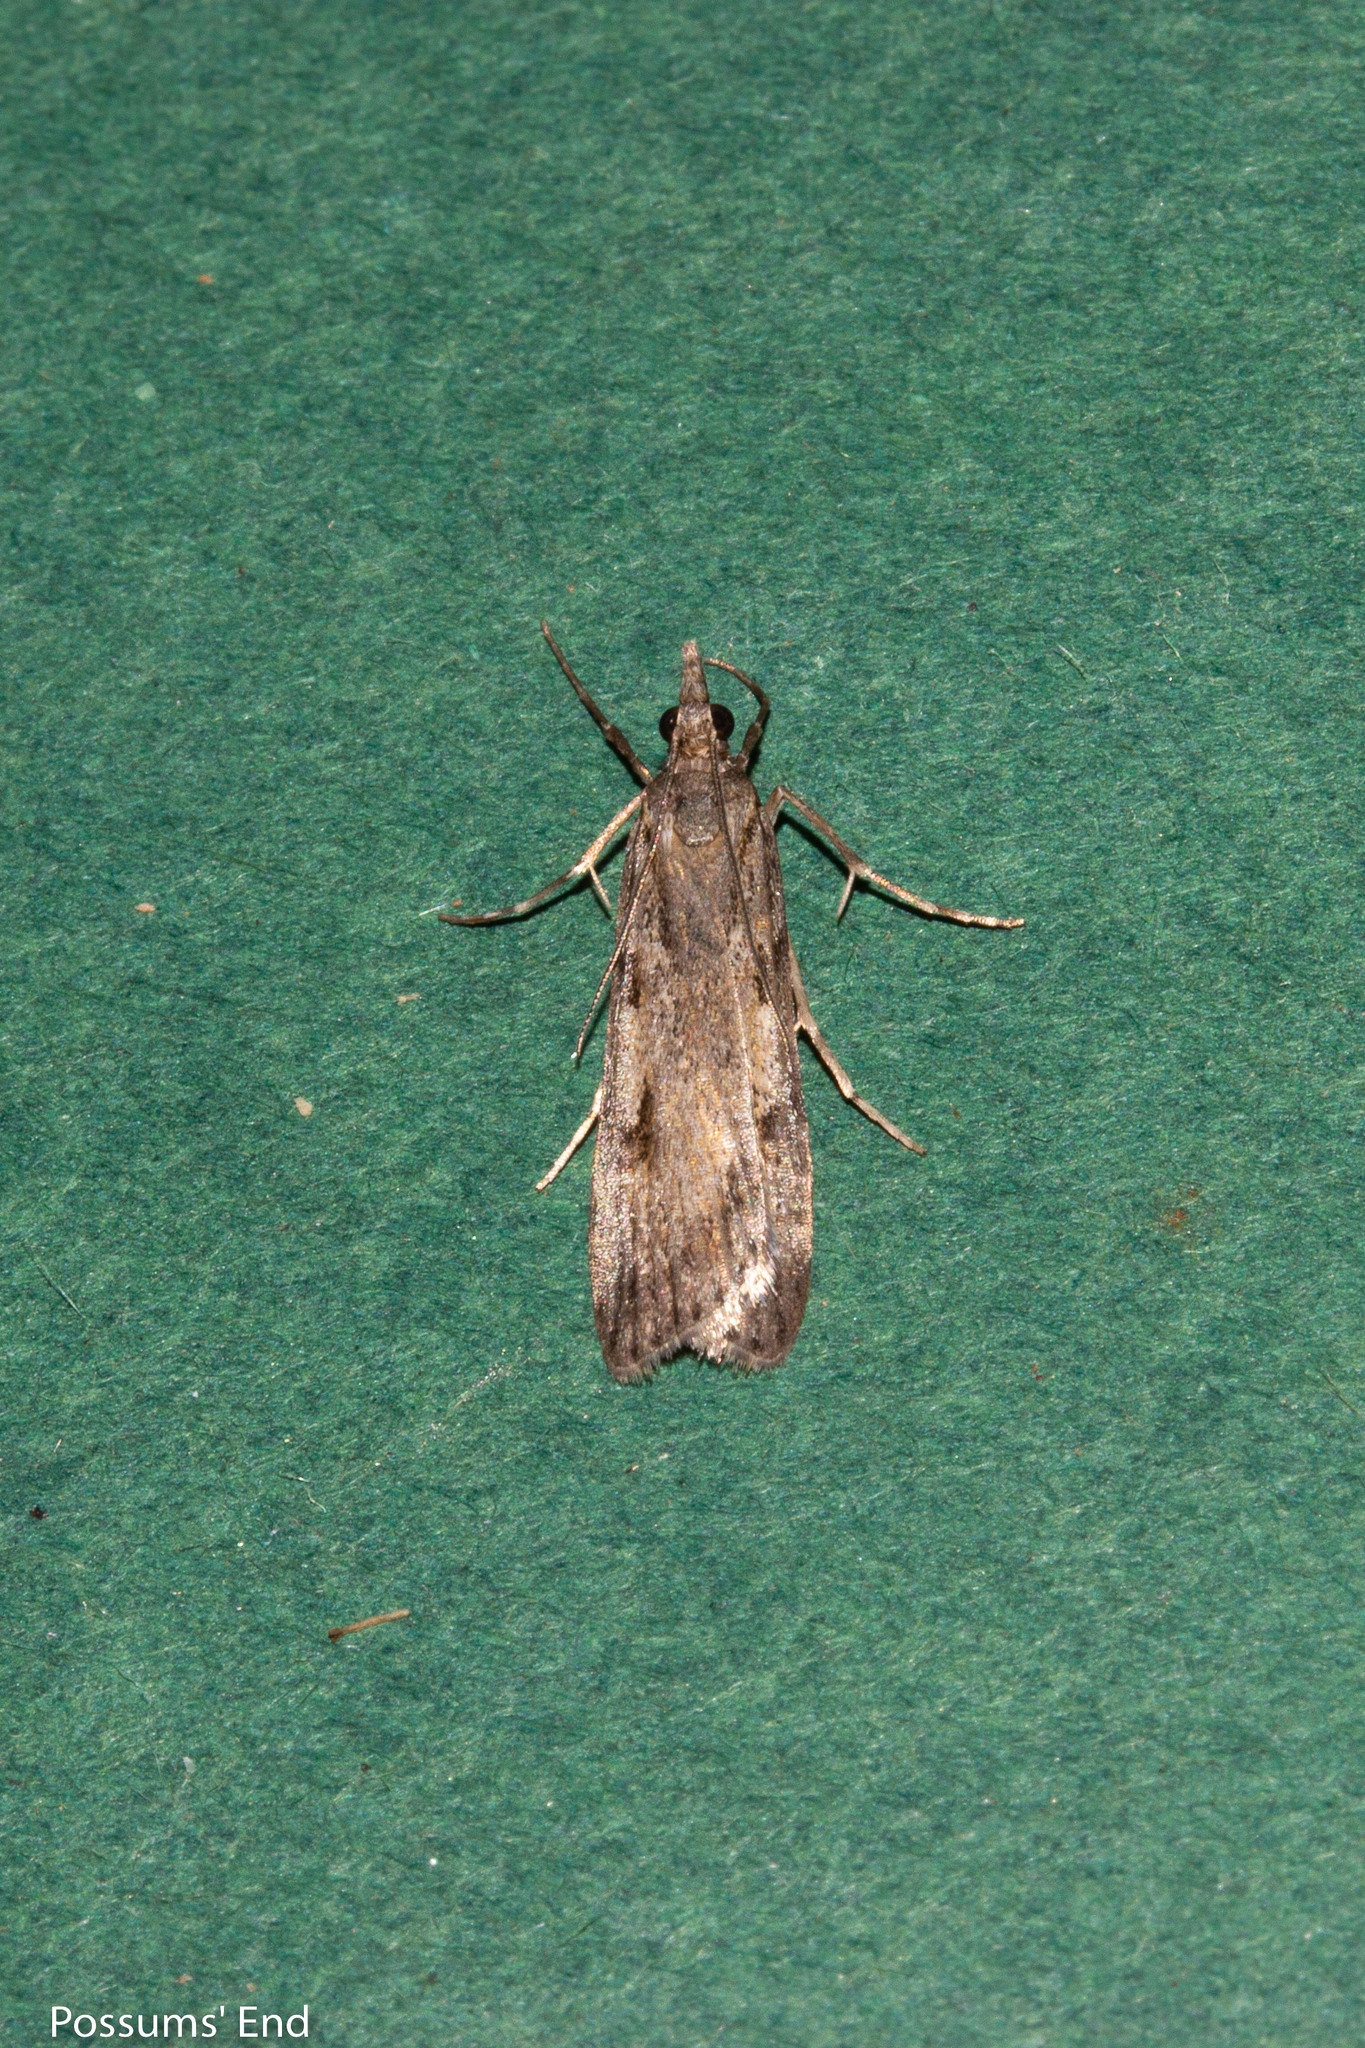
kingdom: Animalia
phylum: Arthropoda
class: Insecta
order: Lepidoptera
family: Crambidae
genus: Scoparia
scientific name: Scoparia halopis
